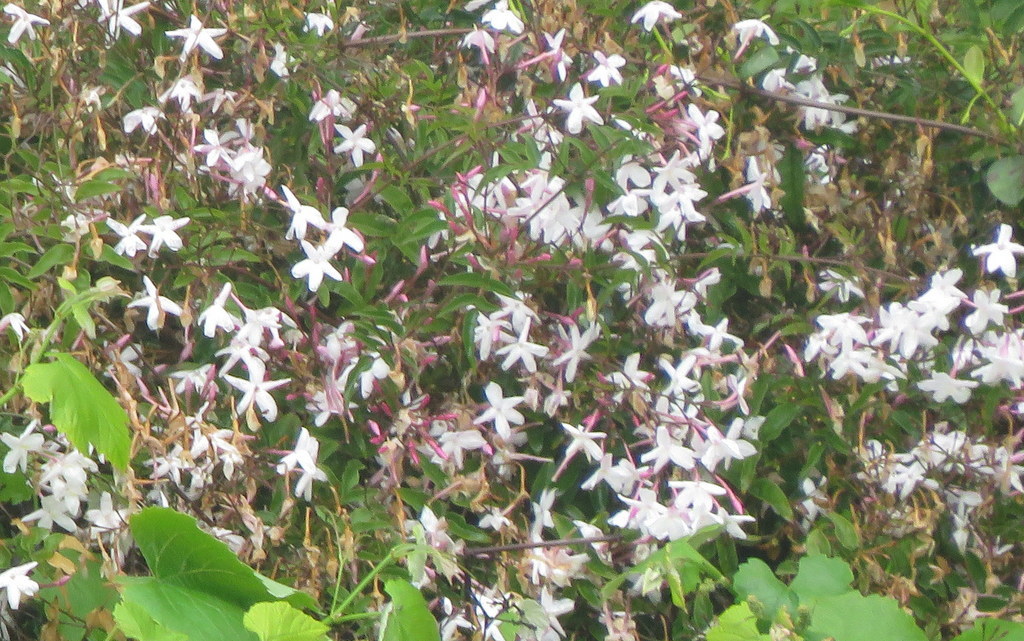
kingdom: Plantae
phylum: Tracheophyta
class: Magnoliopsida
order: Lamiales
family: Oleaceae
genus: Jasminum
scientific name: Jasminum polyanthum
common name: Pink jasmine
